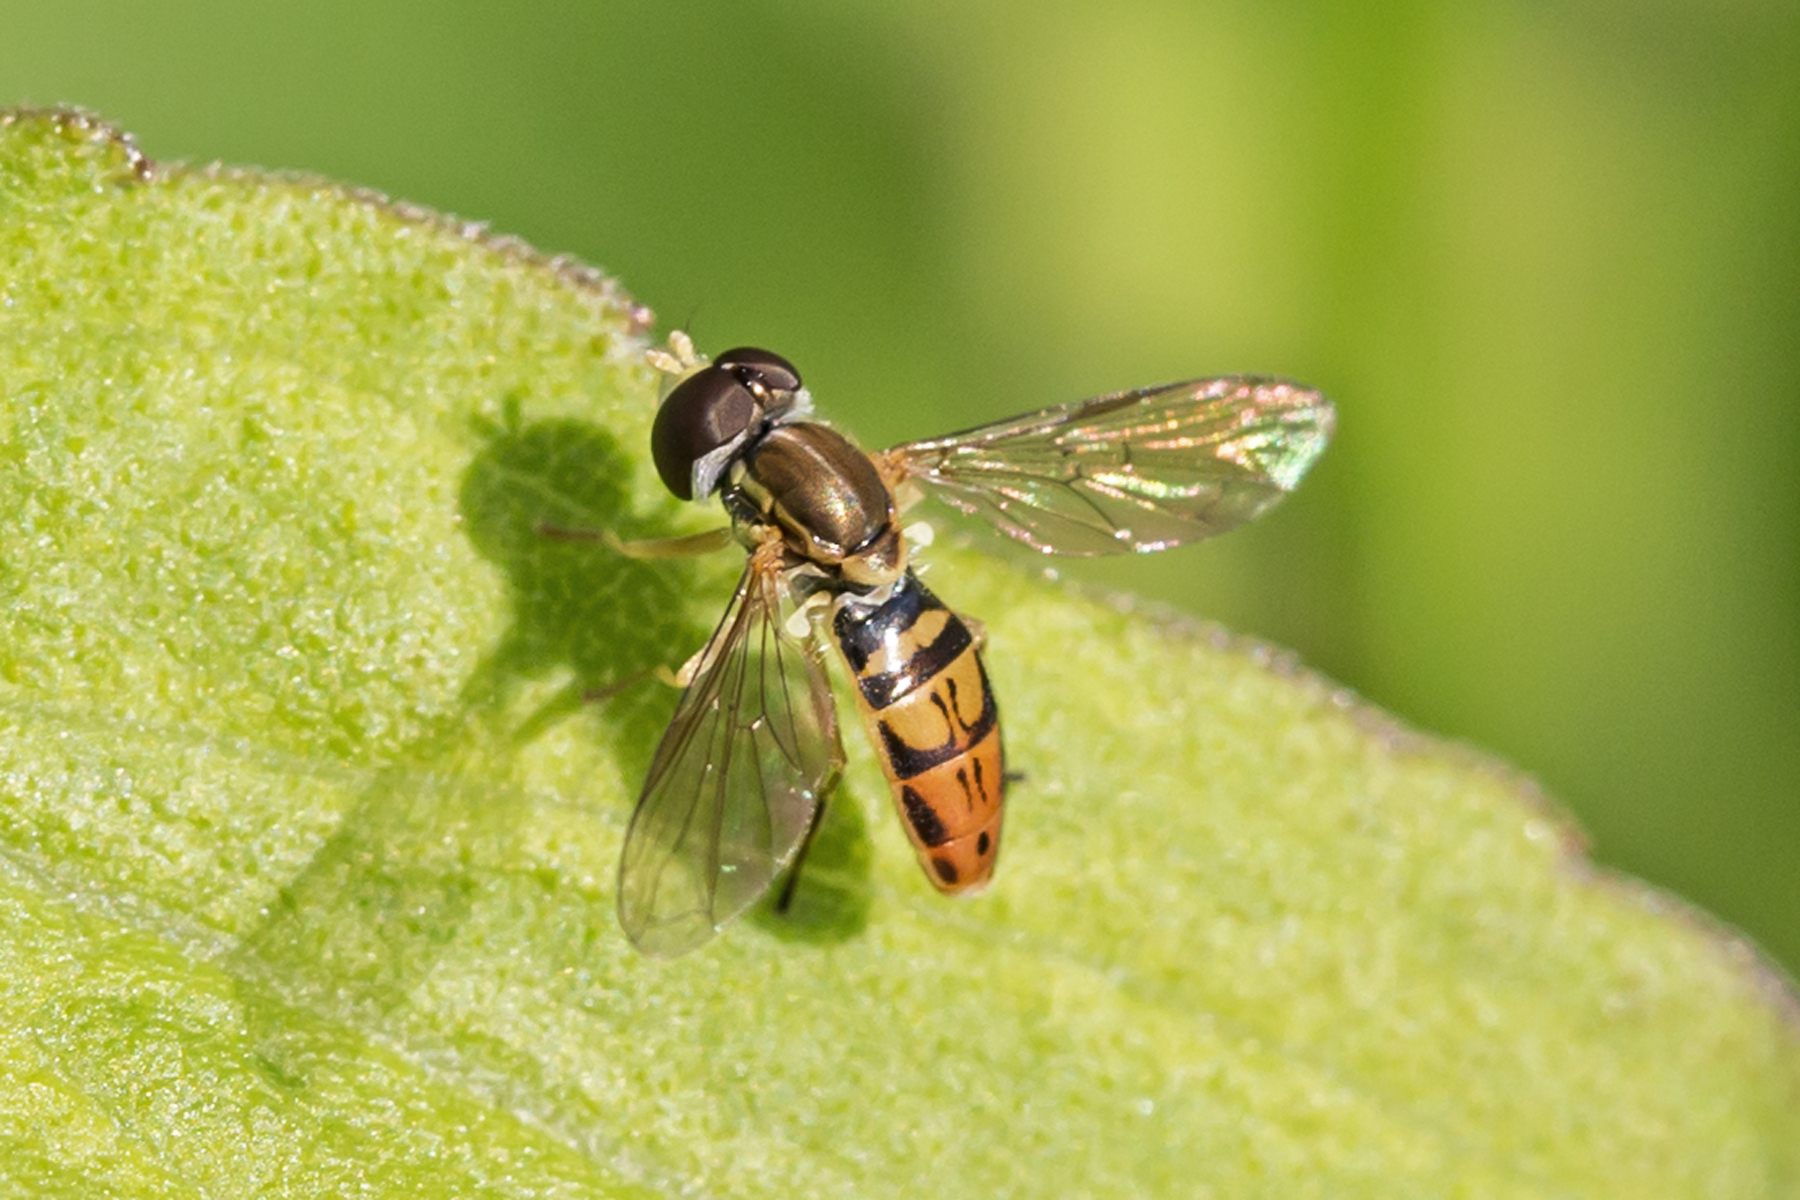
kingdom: Animalia
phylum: Arthropoda
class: Insecta
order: Diptera
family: Syrphidae
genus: Toxomerus
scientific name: Toxomerus marginatus
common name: Syrphid fly
